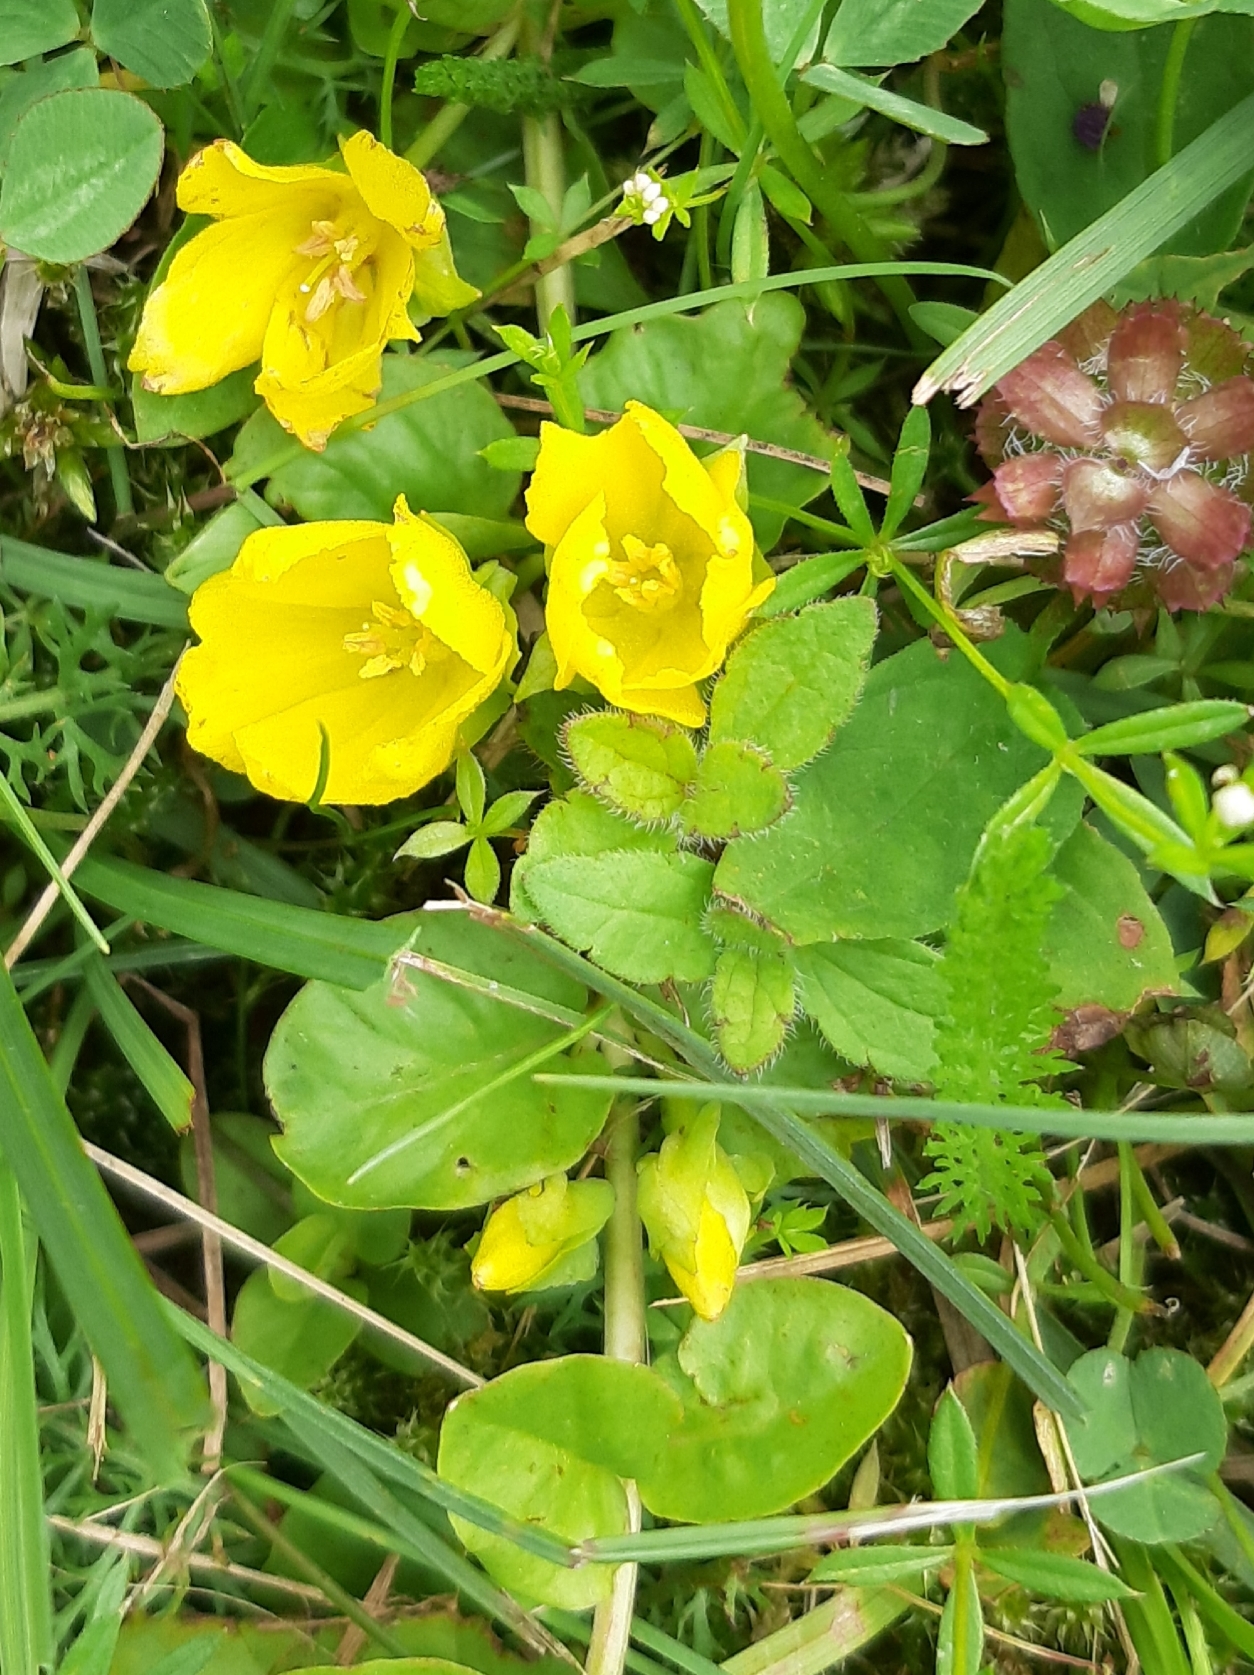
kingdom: Plantae
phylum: Tracheophyta
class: Magnoliopsida
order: Ericales
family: Primulaceae
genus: Lysimachia
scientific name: Lysimachia nummularia
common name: Moneywort
